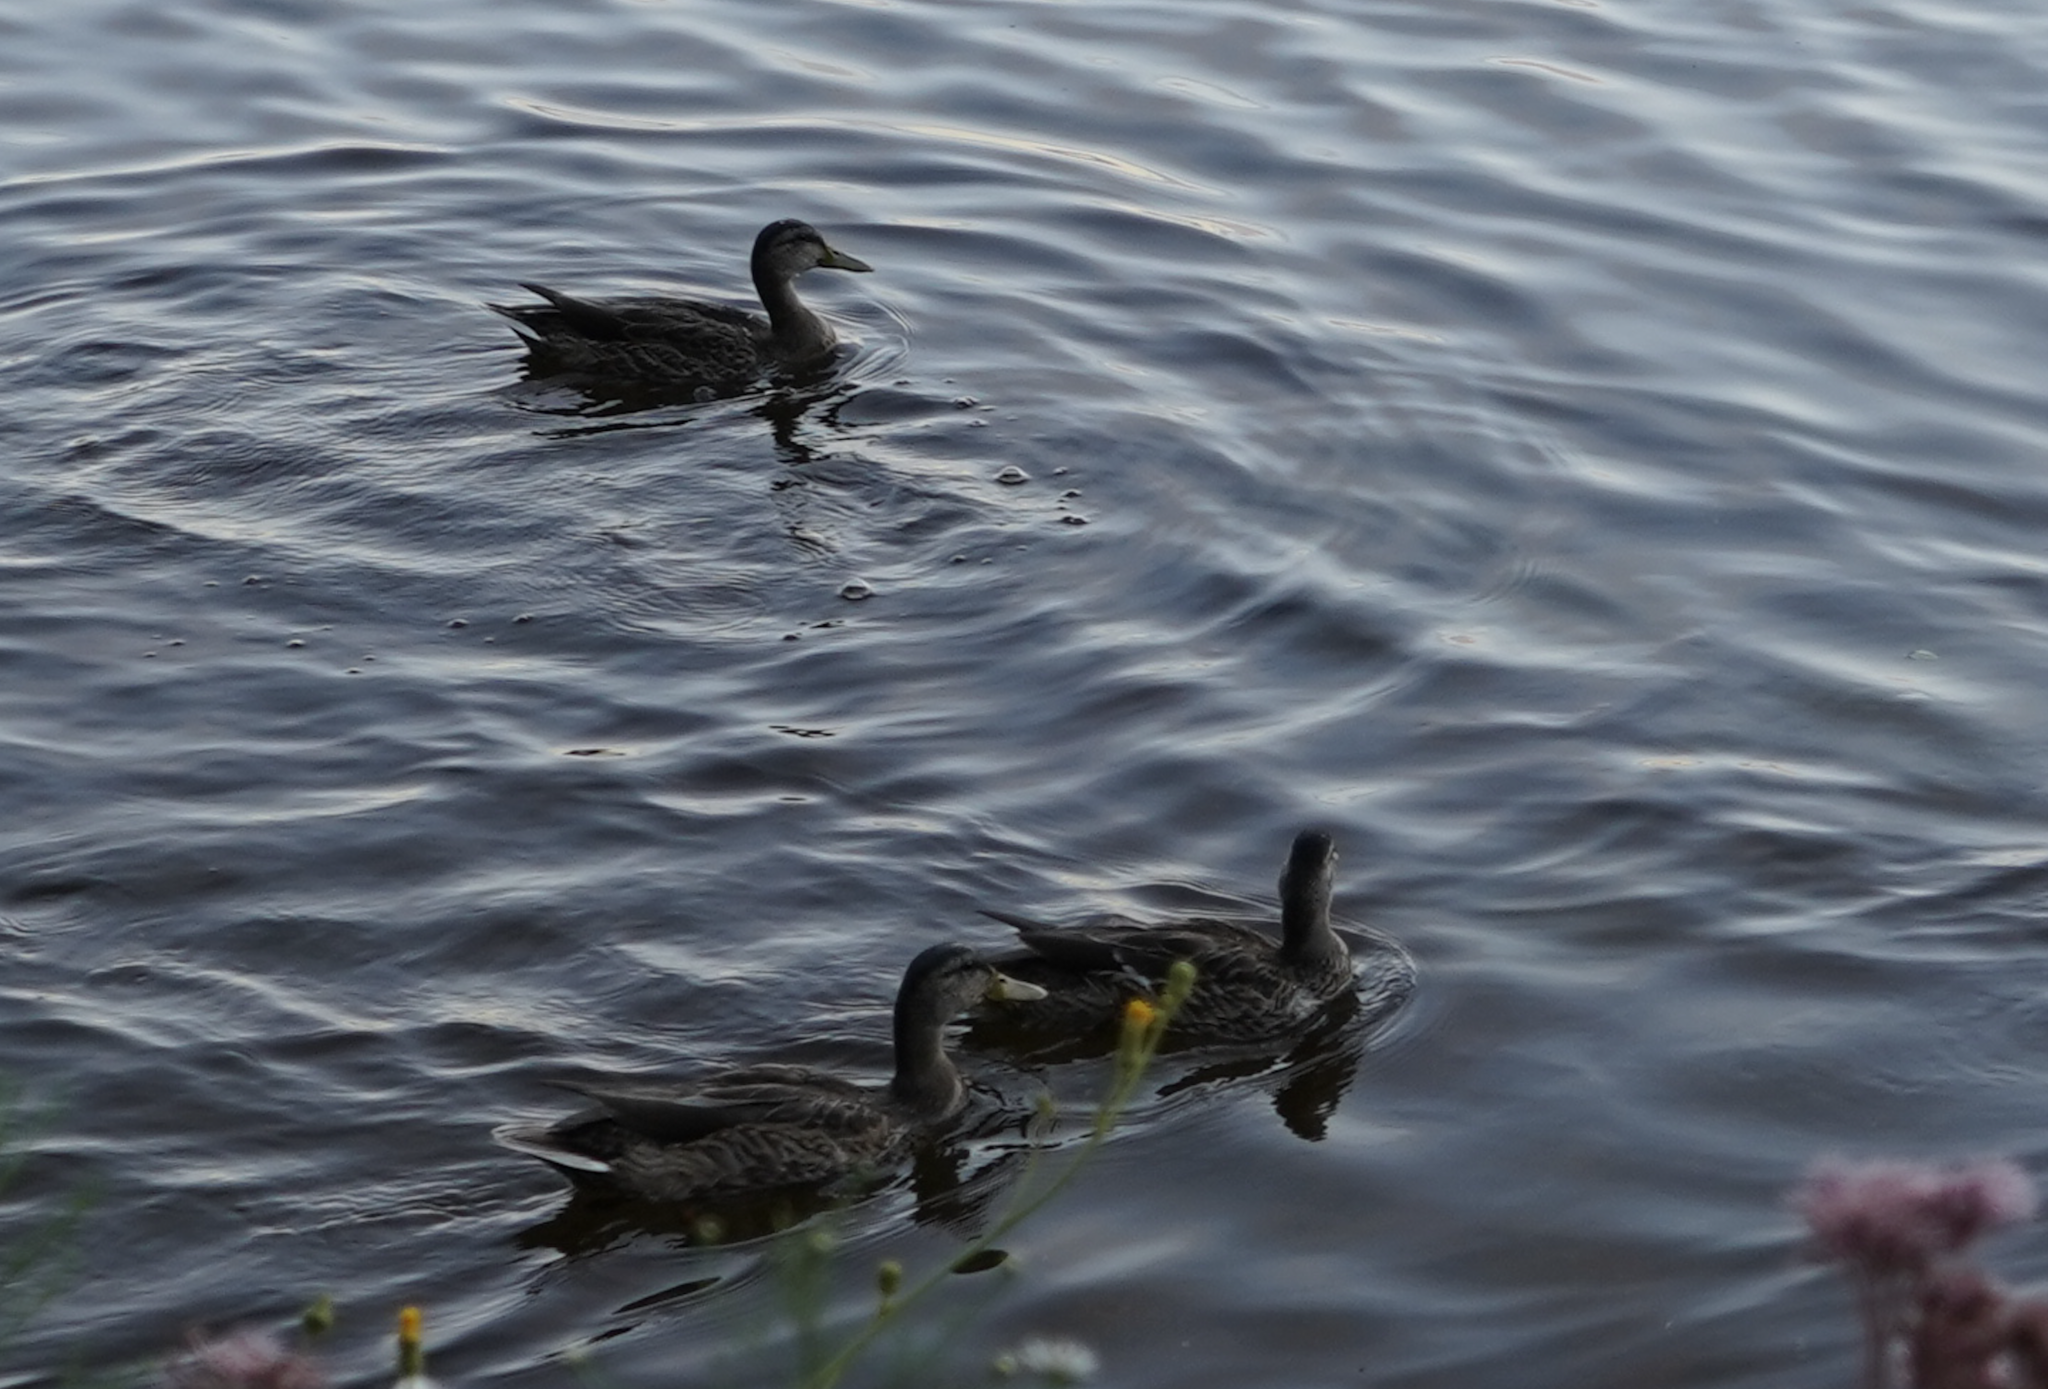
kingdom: Animalia
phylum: Chordata
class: Aves
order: Anseriformes
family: Anatidae
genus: Anas
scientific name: Anas platyrhynchos
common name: Mallard
